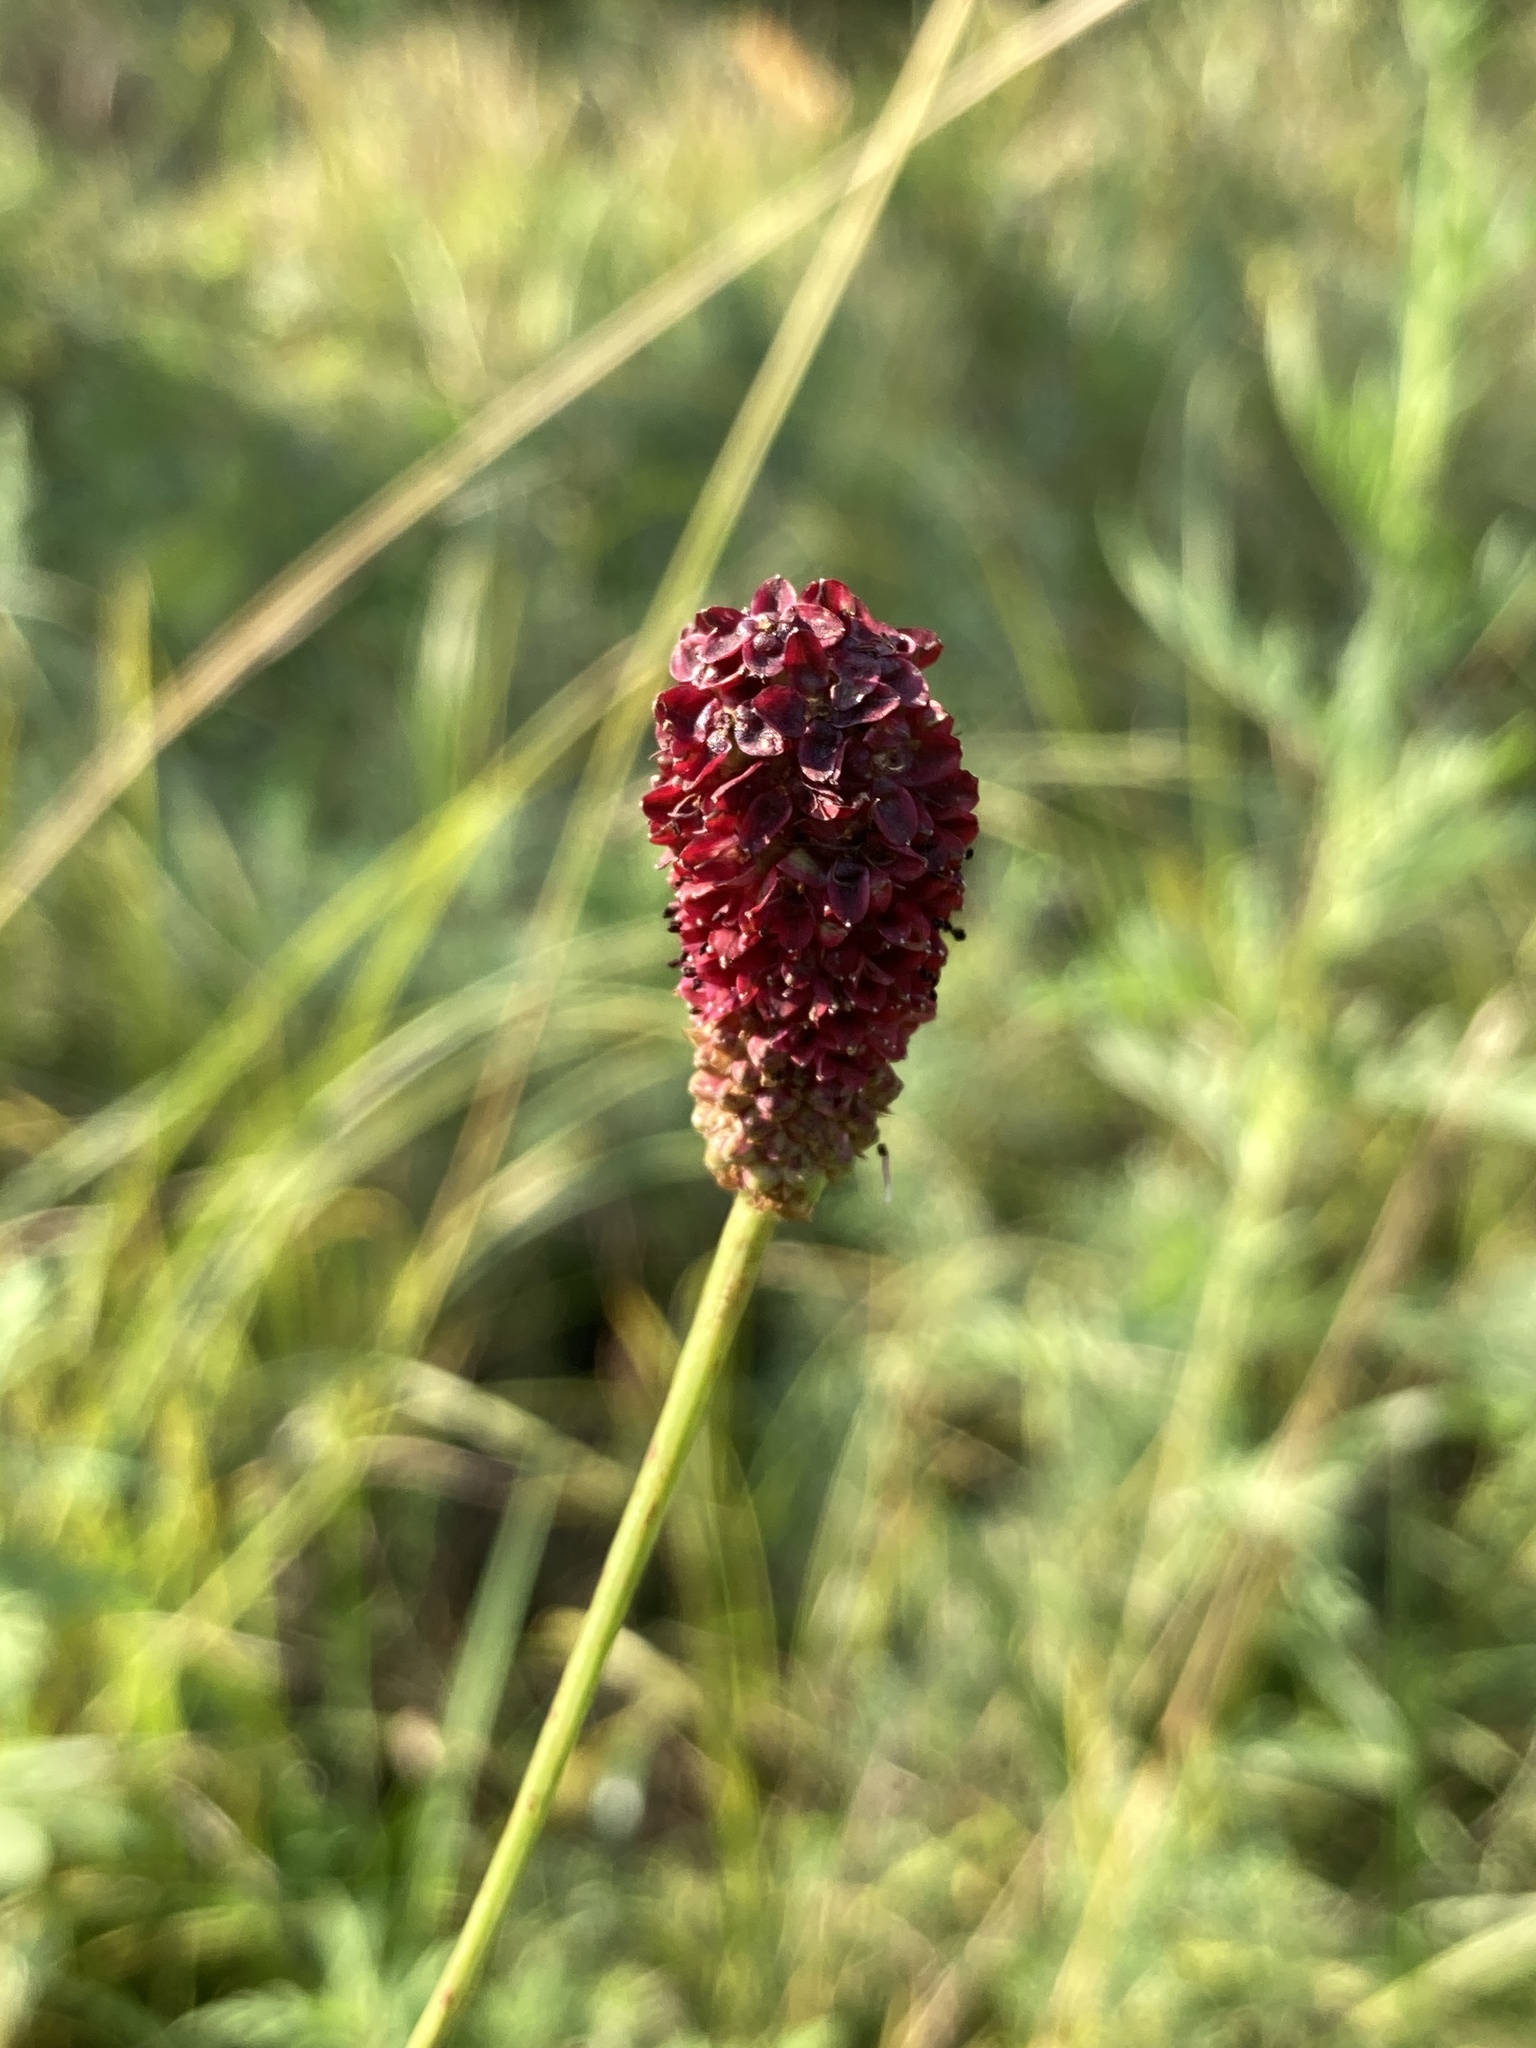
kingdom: Plantae
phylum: Tracheophyta
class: Magnoliopsida
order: Rosales
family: Rosaceae
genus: Sanguisorba
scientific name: Sanguisorba officinalis
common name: Great burnet
